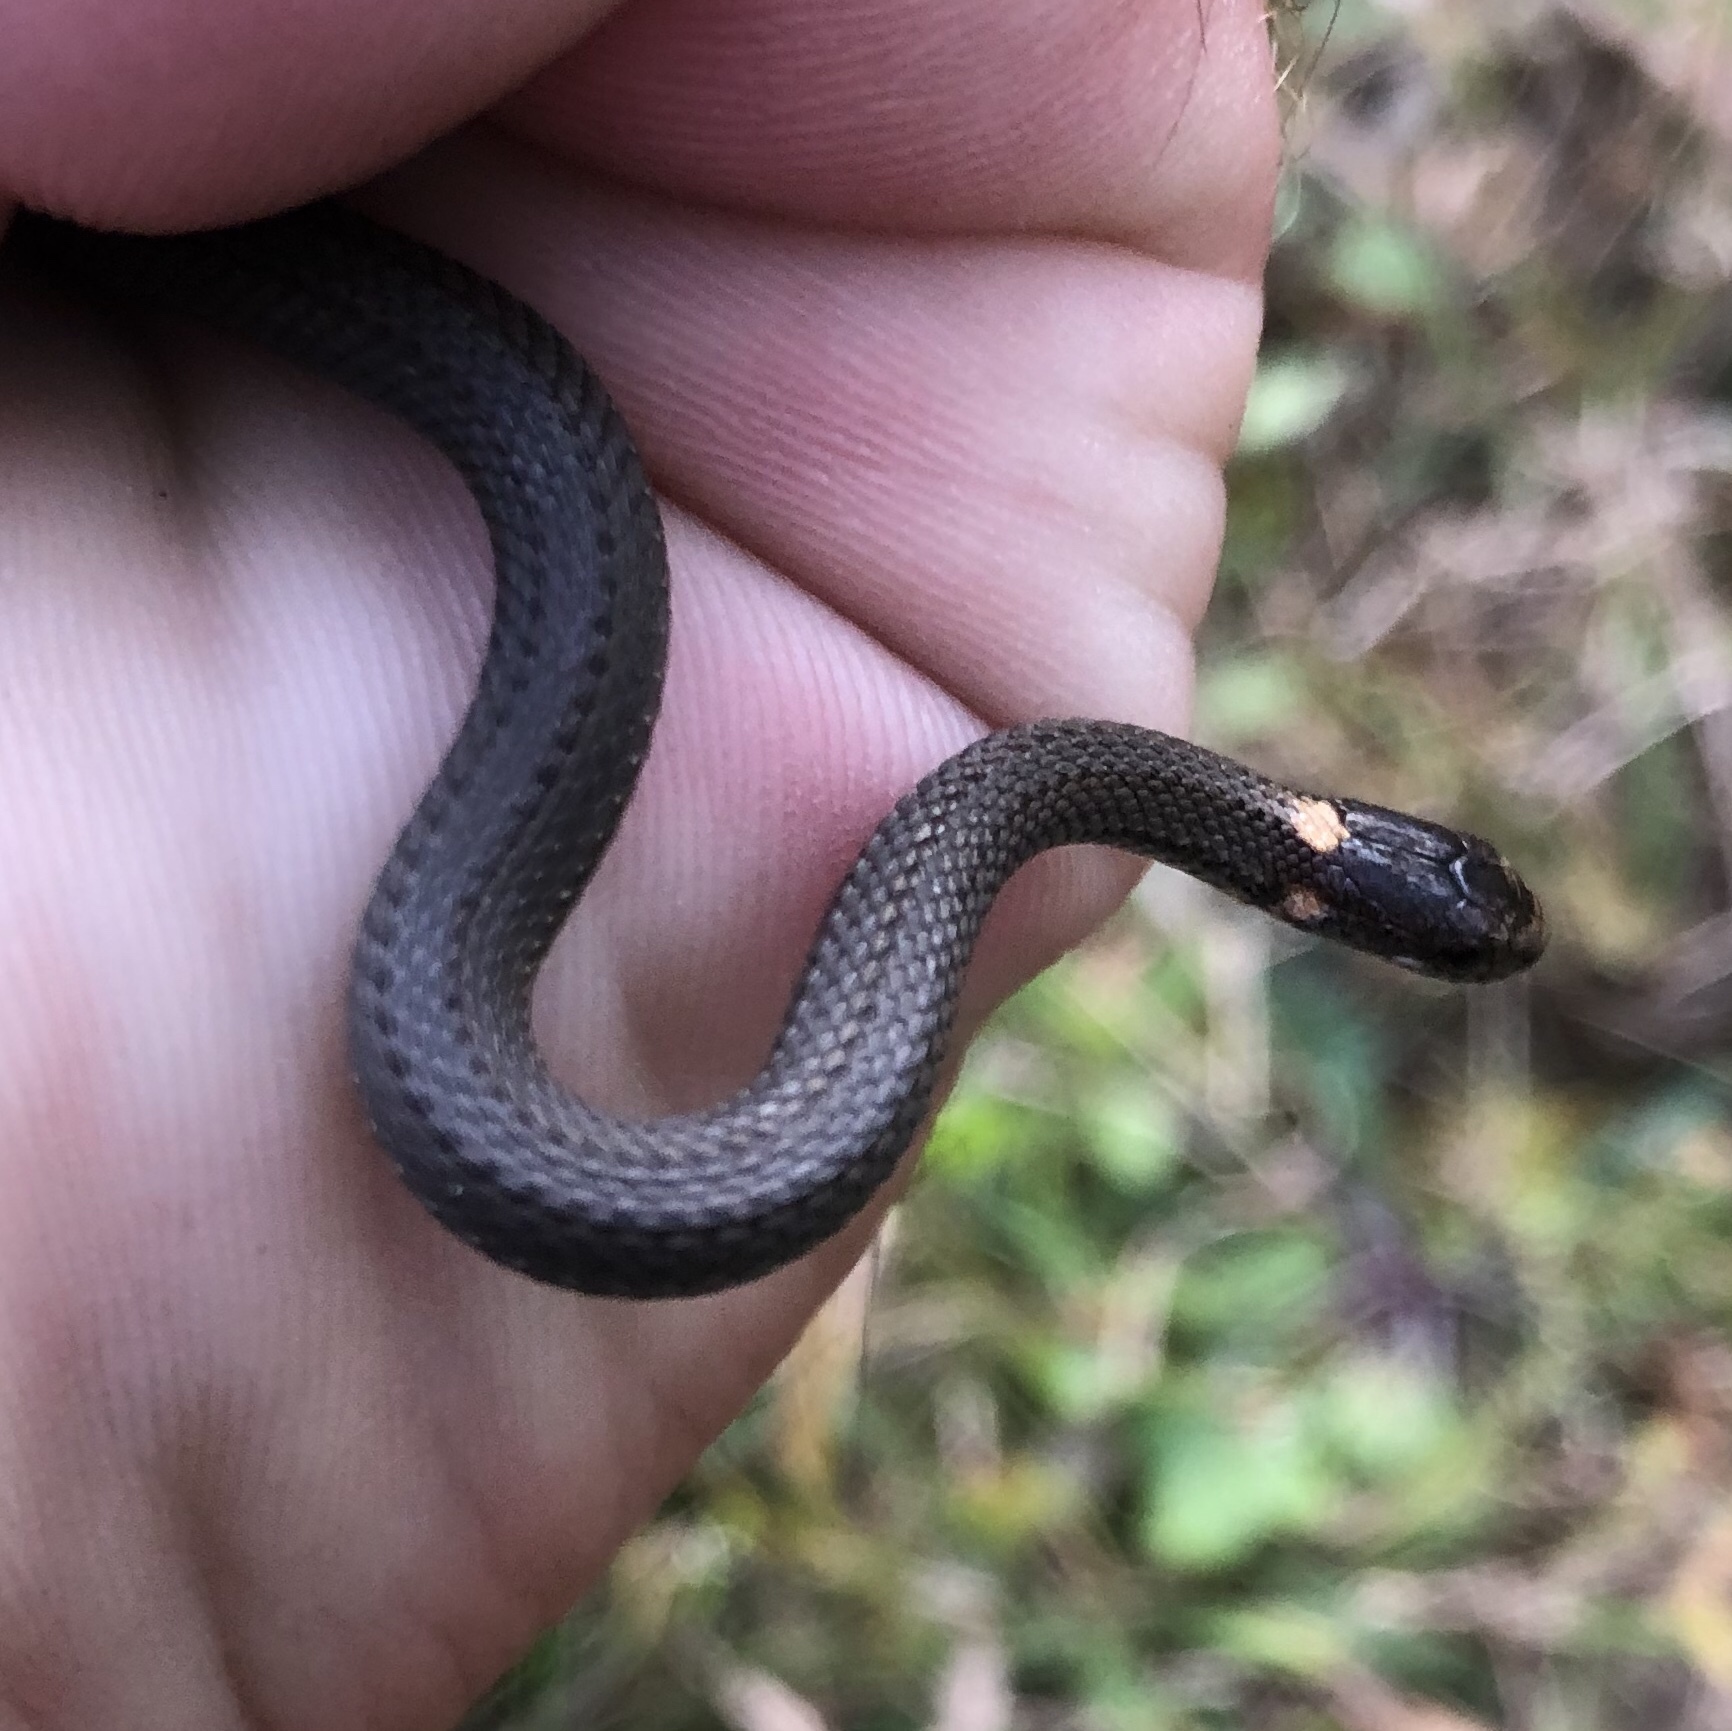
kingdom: Animalia
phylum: Chordata
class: Squamata
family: Colubridae
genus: Storeria
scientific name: Storeria occipitomaculata
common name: Redbelly snake
